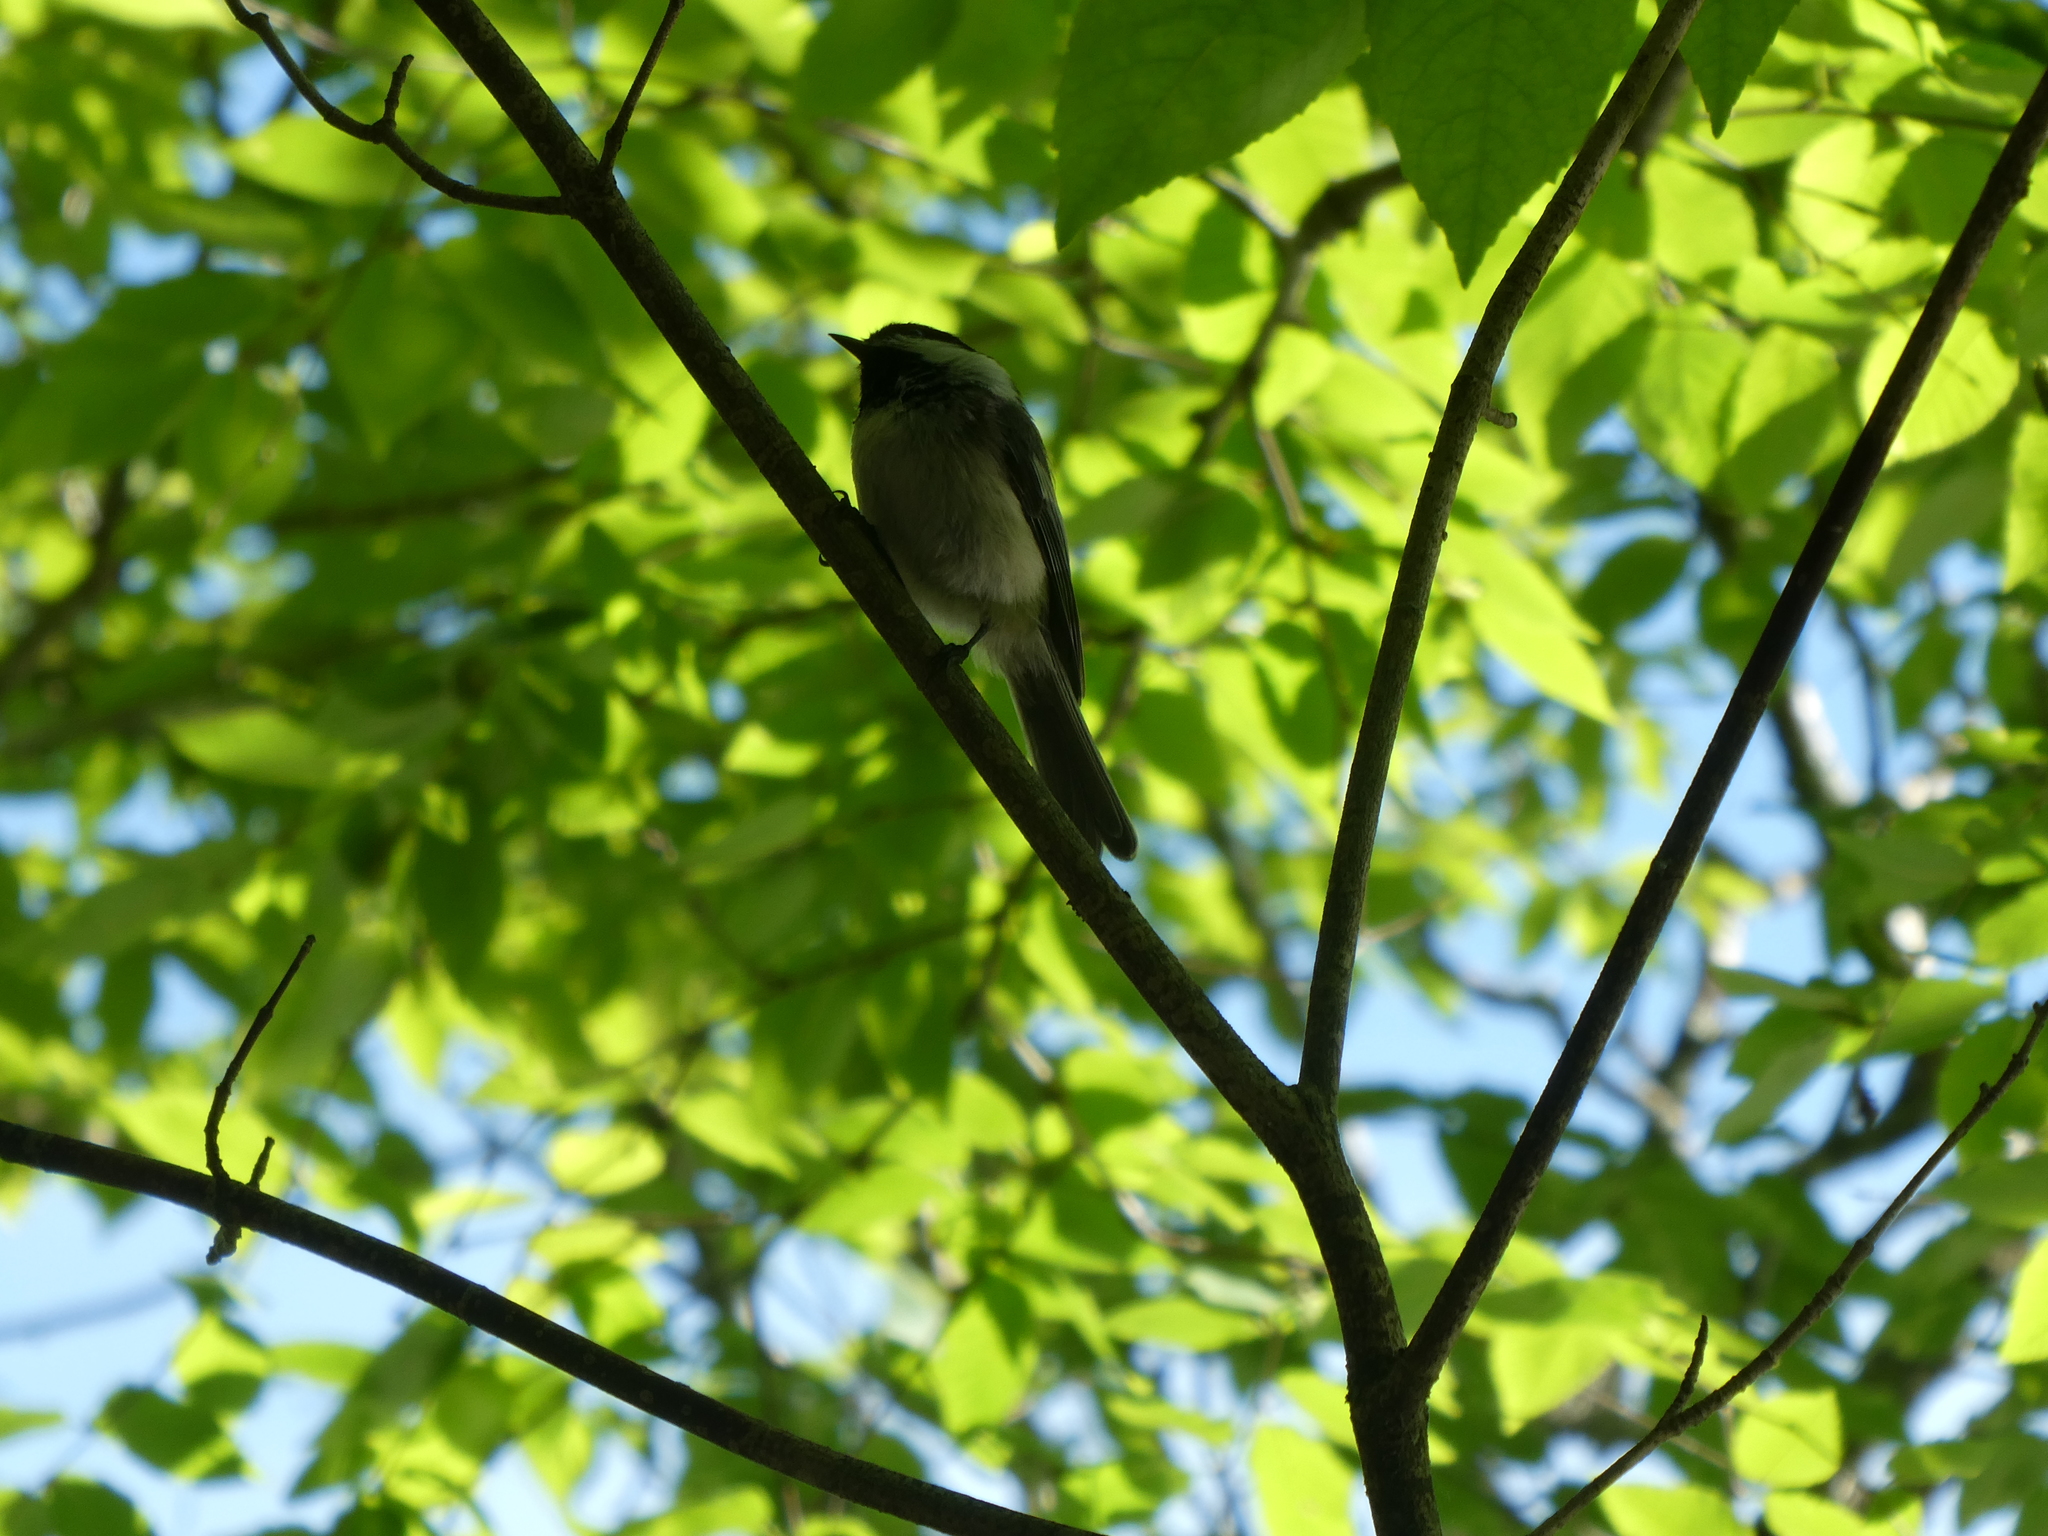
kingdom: Animalia
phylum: Chordata
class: Aves
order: Passeriformes
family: Paridae
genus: Poecile
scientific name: Poecile atricapillus
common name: Black-capped chickadee
